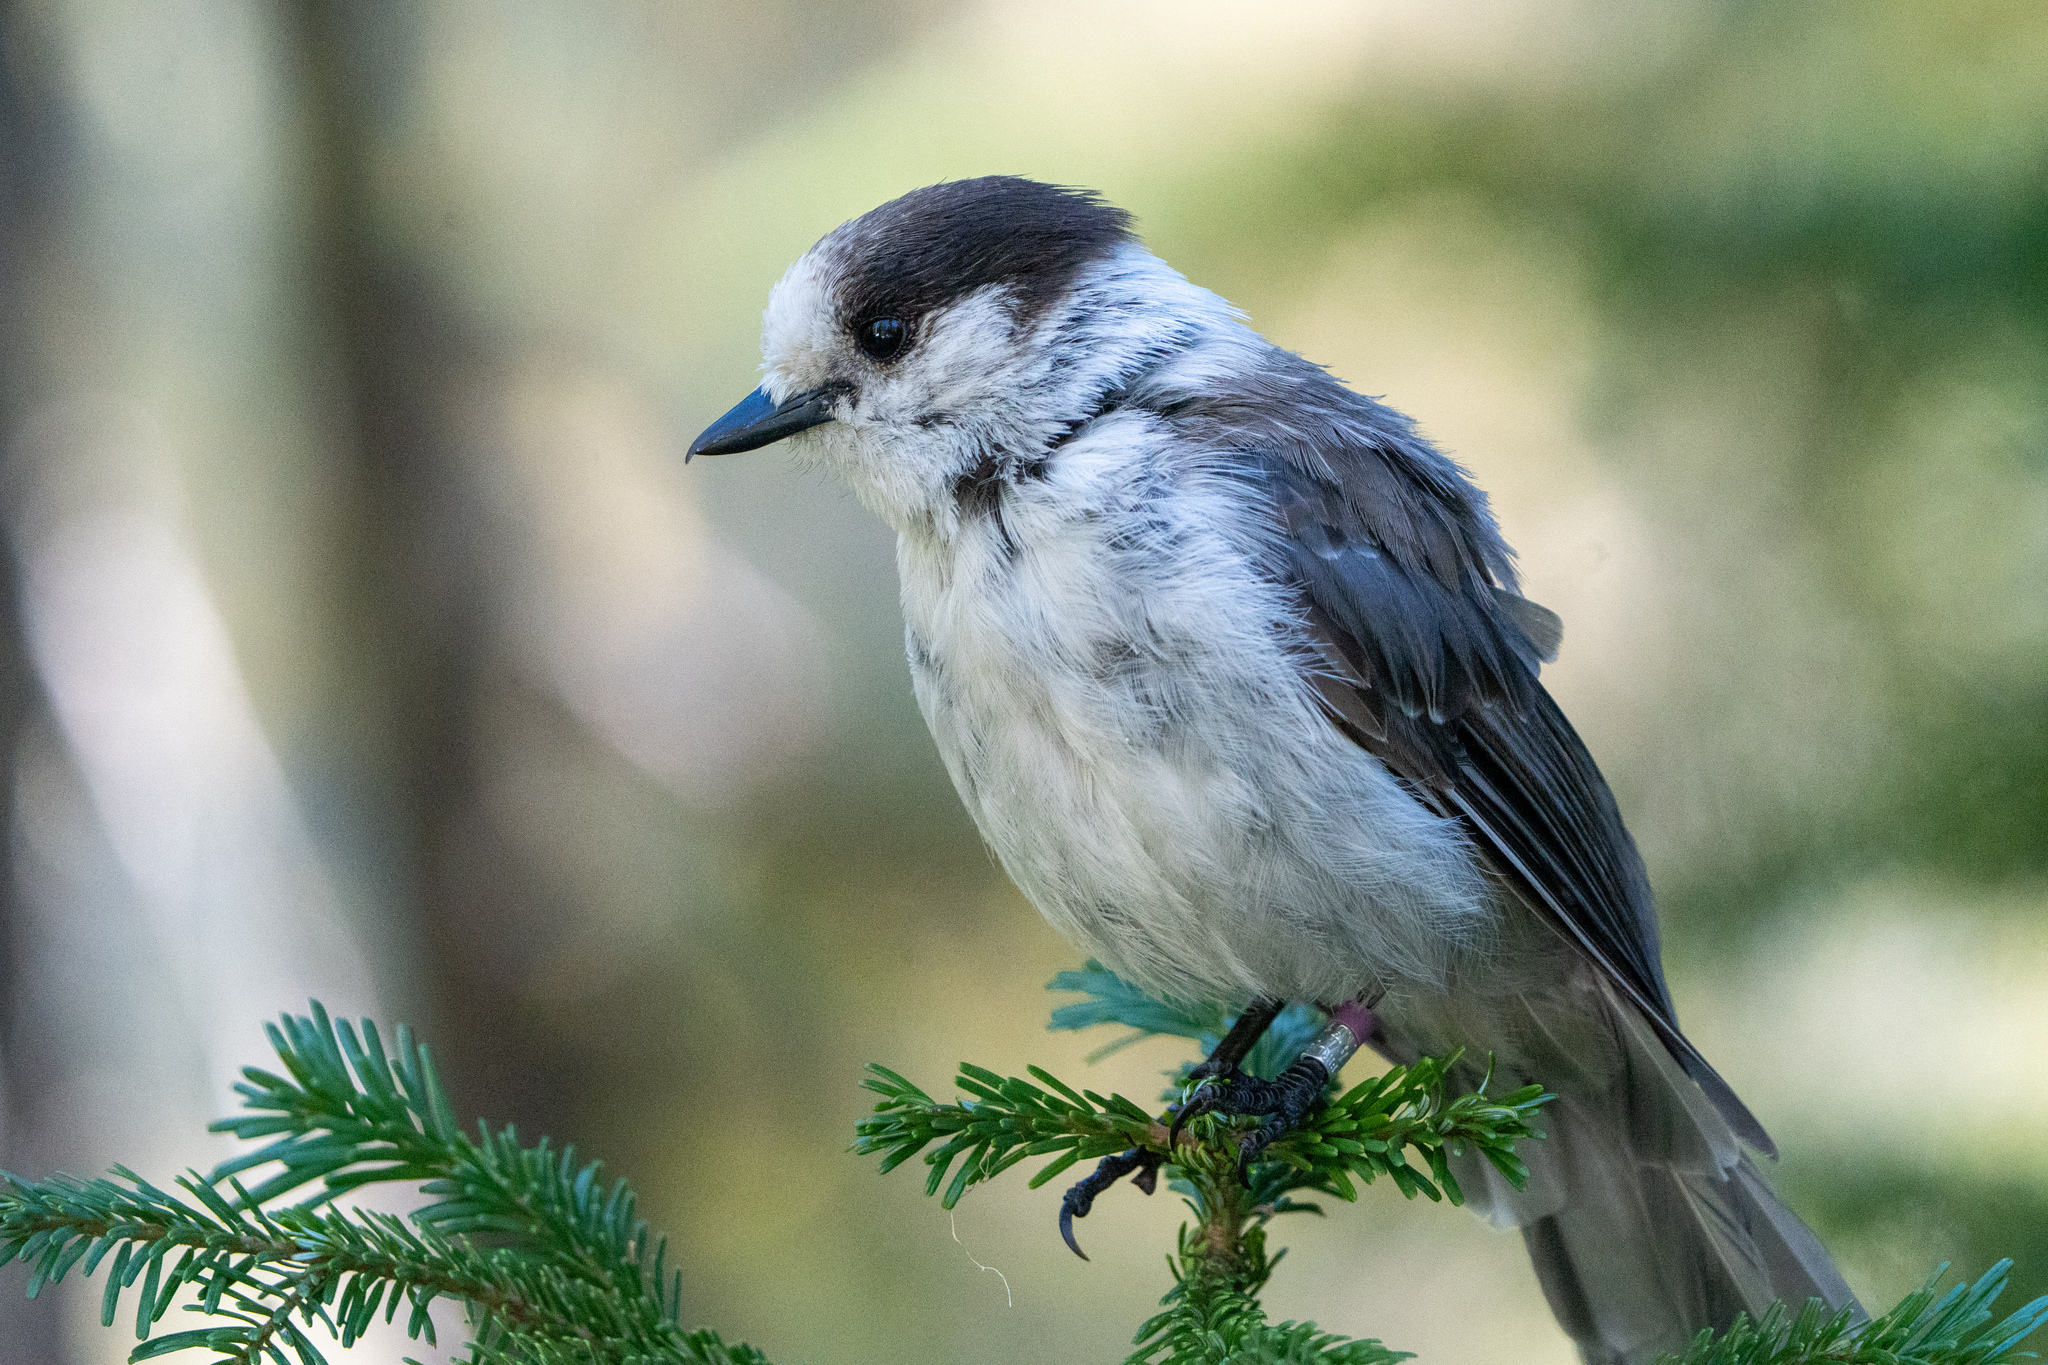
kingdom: Animalia
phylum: Chordata
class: Aves
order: Passeriformes
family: Corvidae
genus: Perisoreus
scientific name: Perisoreus canadensis
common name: Gray jay
